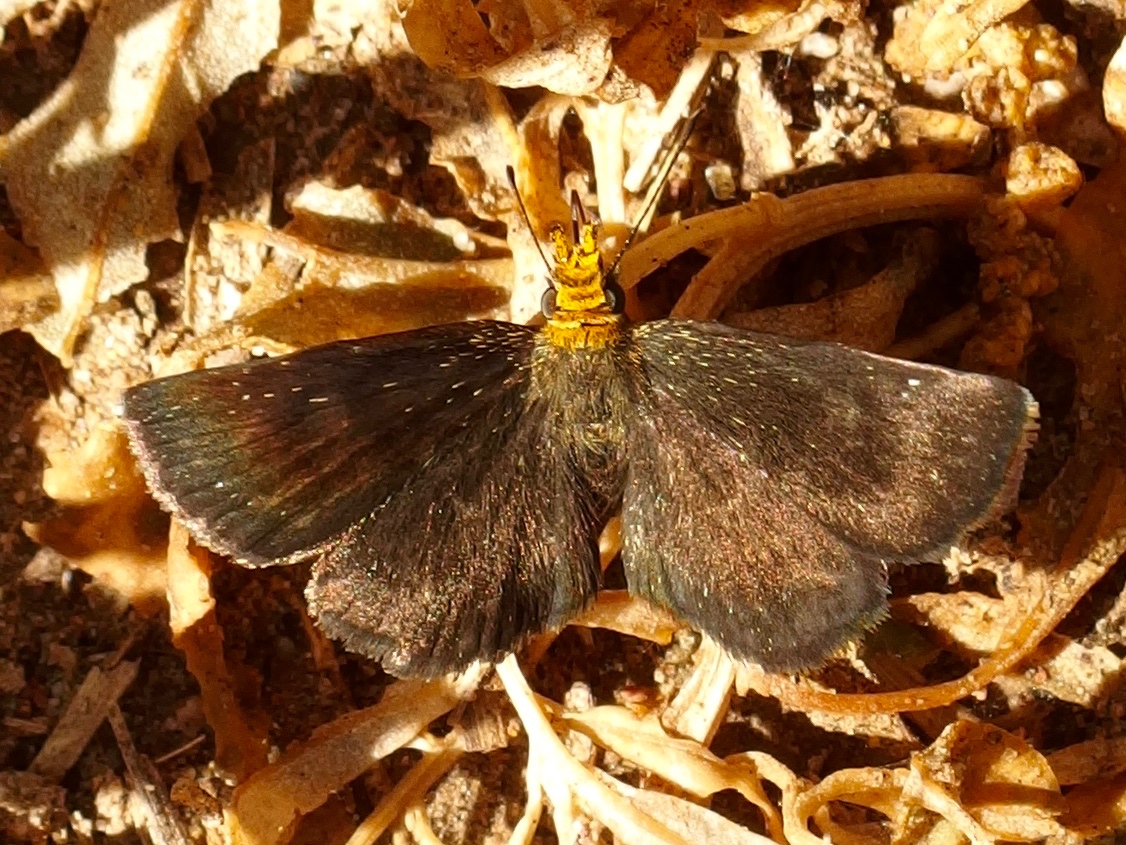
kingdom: Animalia
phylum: Arthropoda
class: Insecta
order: Lepidoptera
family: Hesperiidae
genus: Staphylus
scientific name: Staphylus ceos
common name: Golden-headed scallopwing
